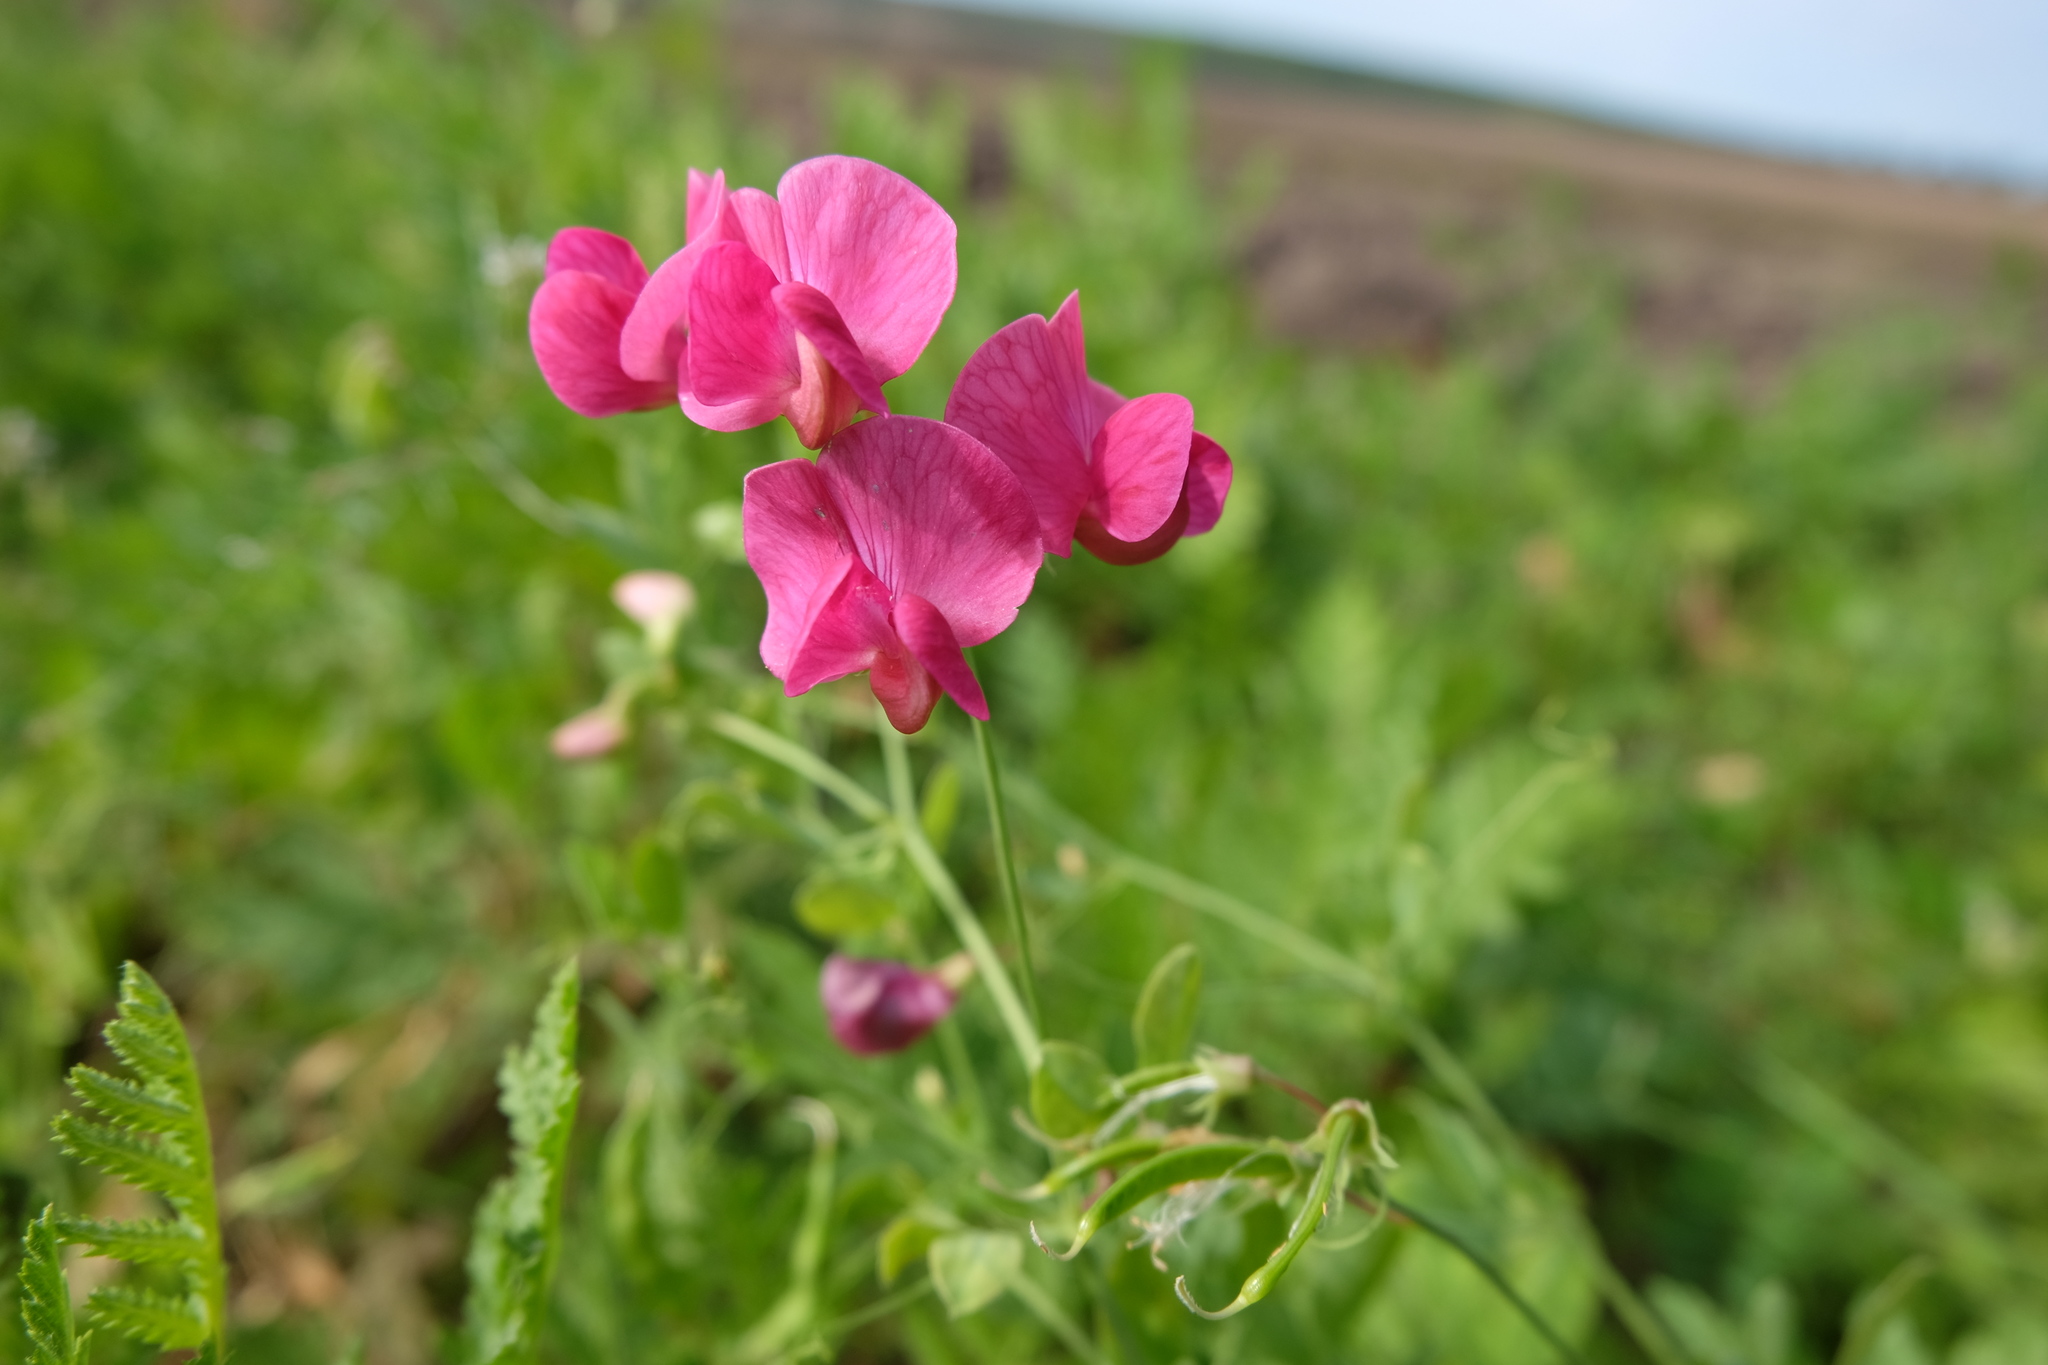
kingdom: Plantae
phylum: Tracheophyta
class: Magnoliopsida
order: Fabales
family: Fabaceae
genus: Lathyrus
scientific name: Lathyrus tuberosus
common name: Tuberous pea
